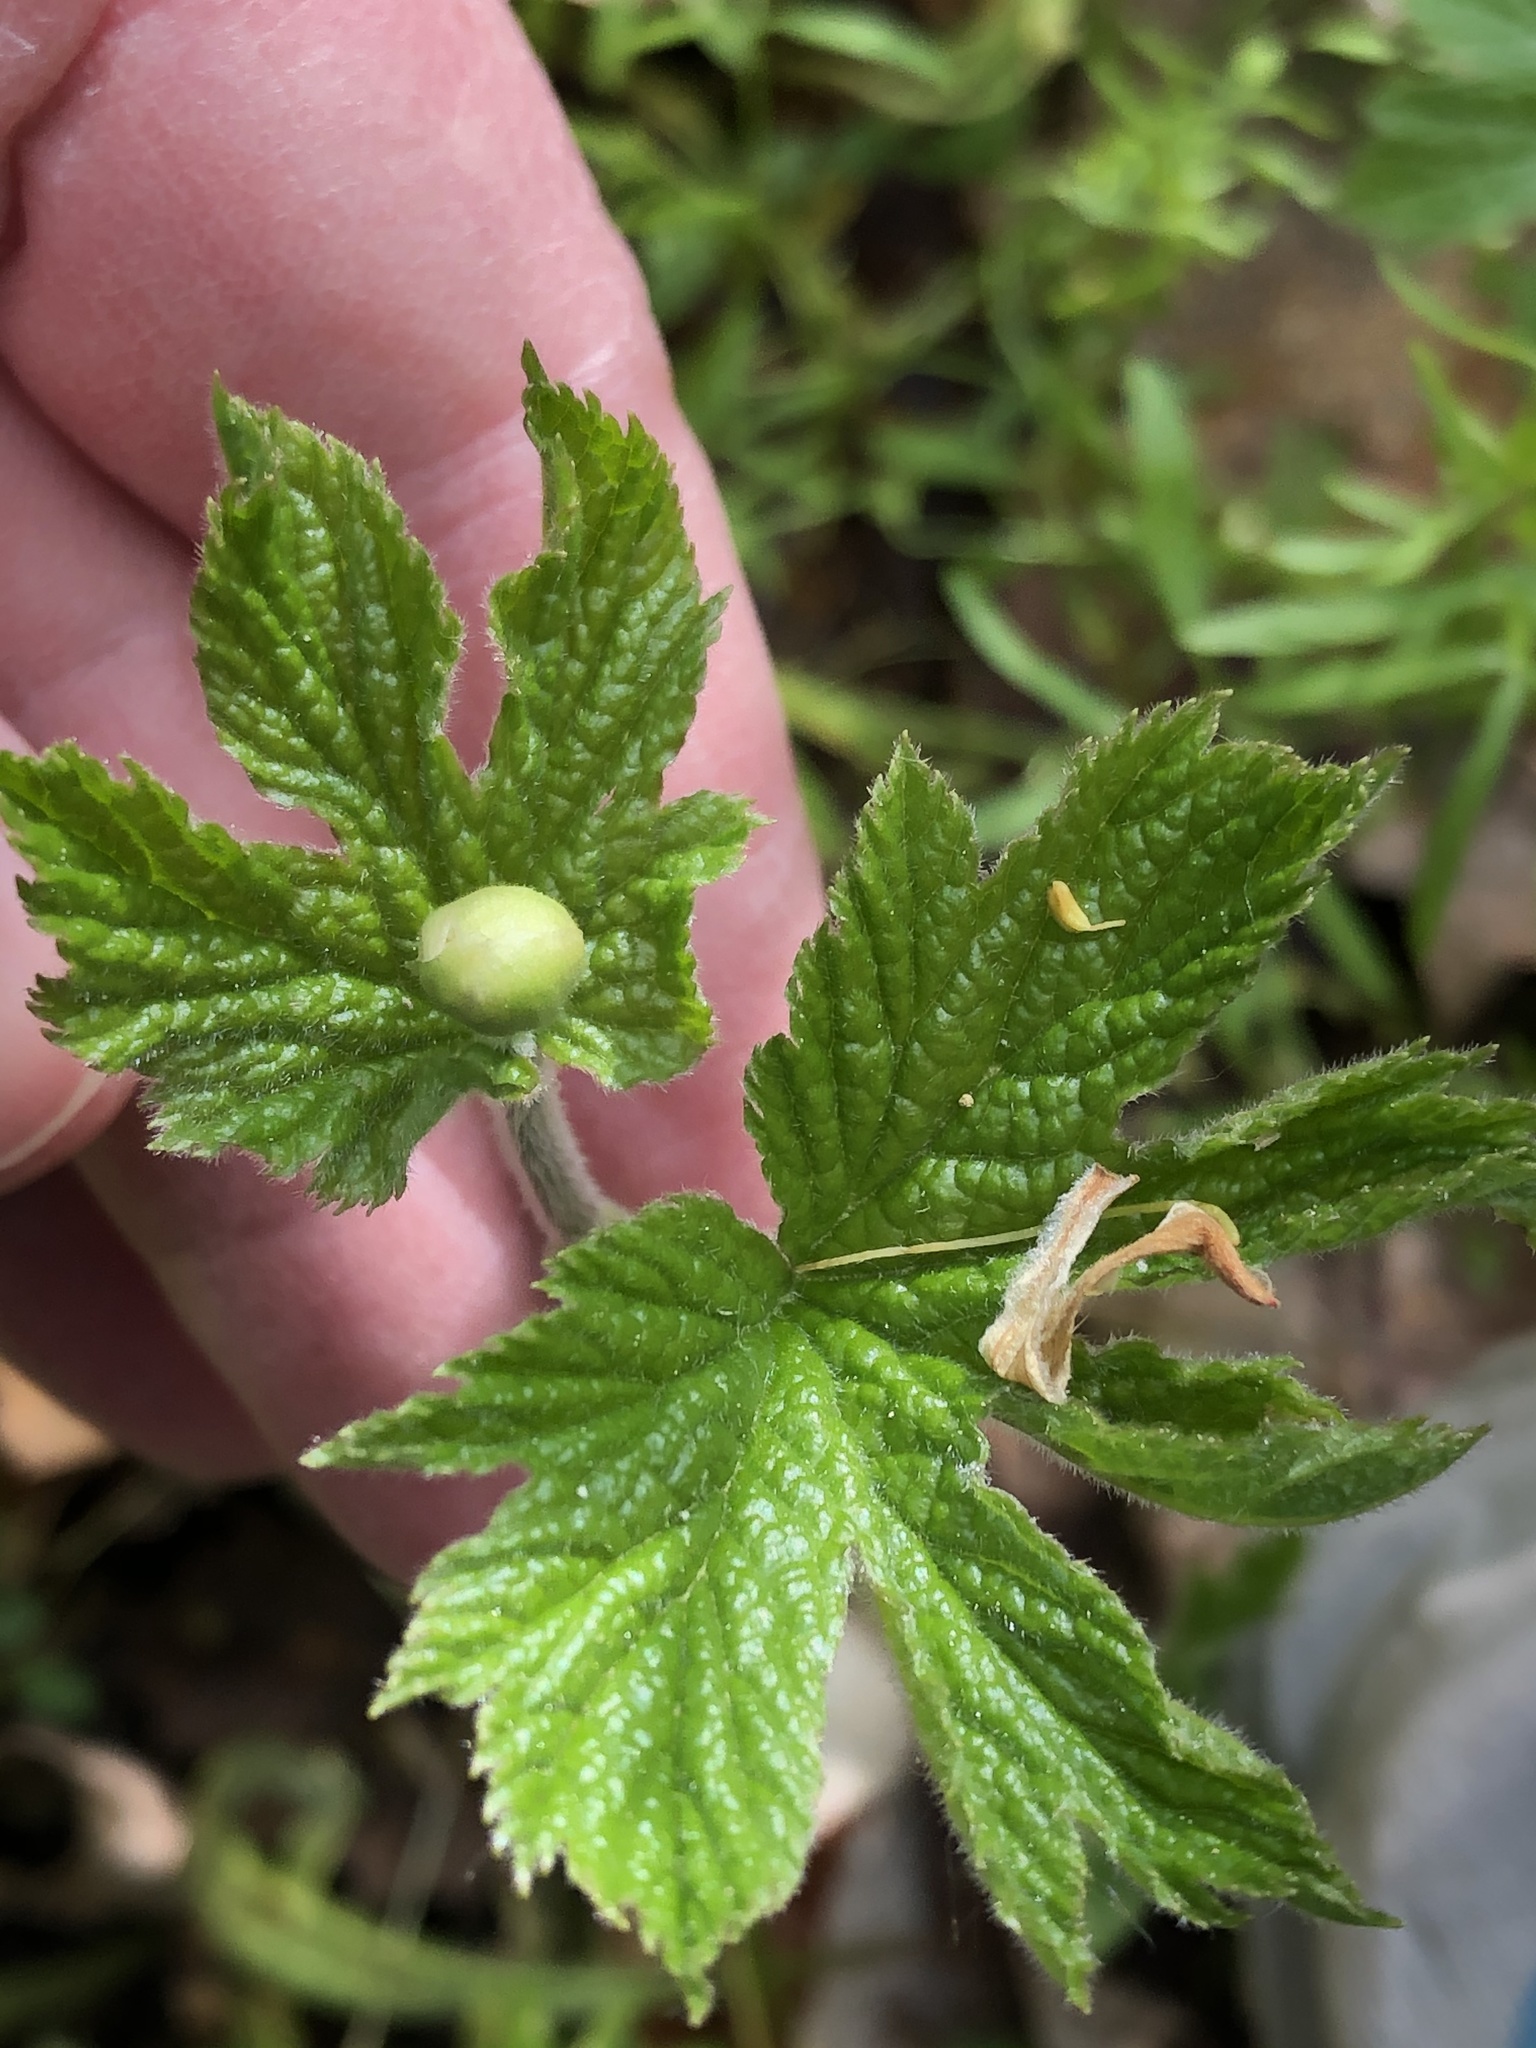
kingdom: Plantae
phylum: Tracheophyta
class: Magnoliopsida
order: Ranunculales
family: Ranunculaceae
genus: Hydrastis
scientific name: Hydrastis canadensis
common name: Goldenseal
